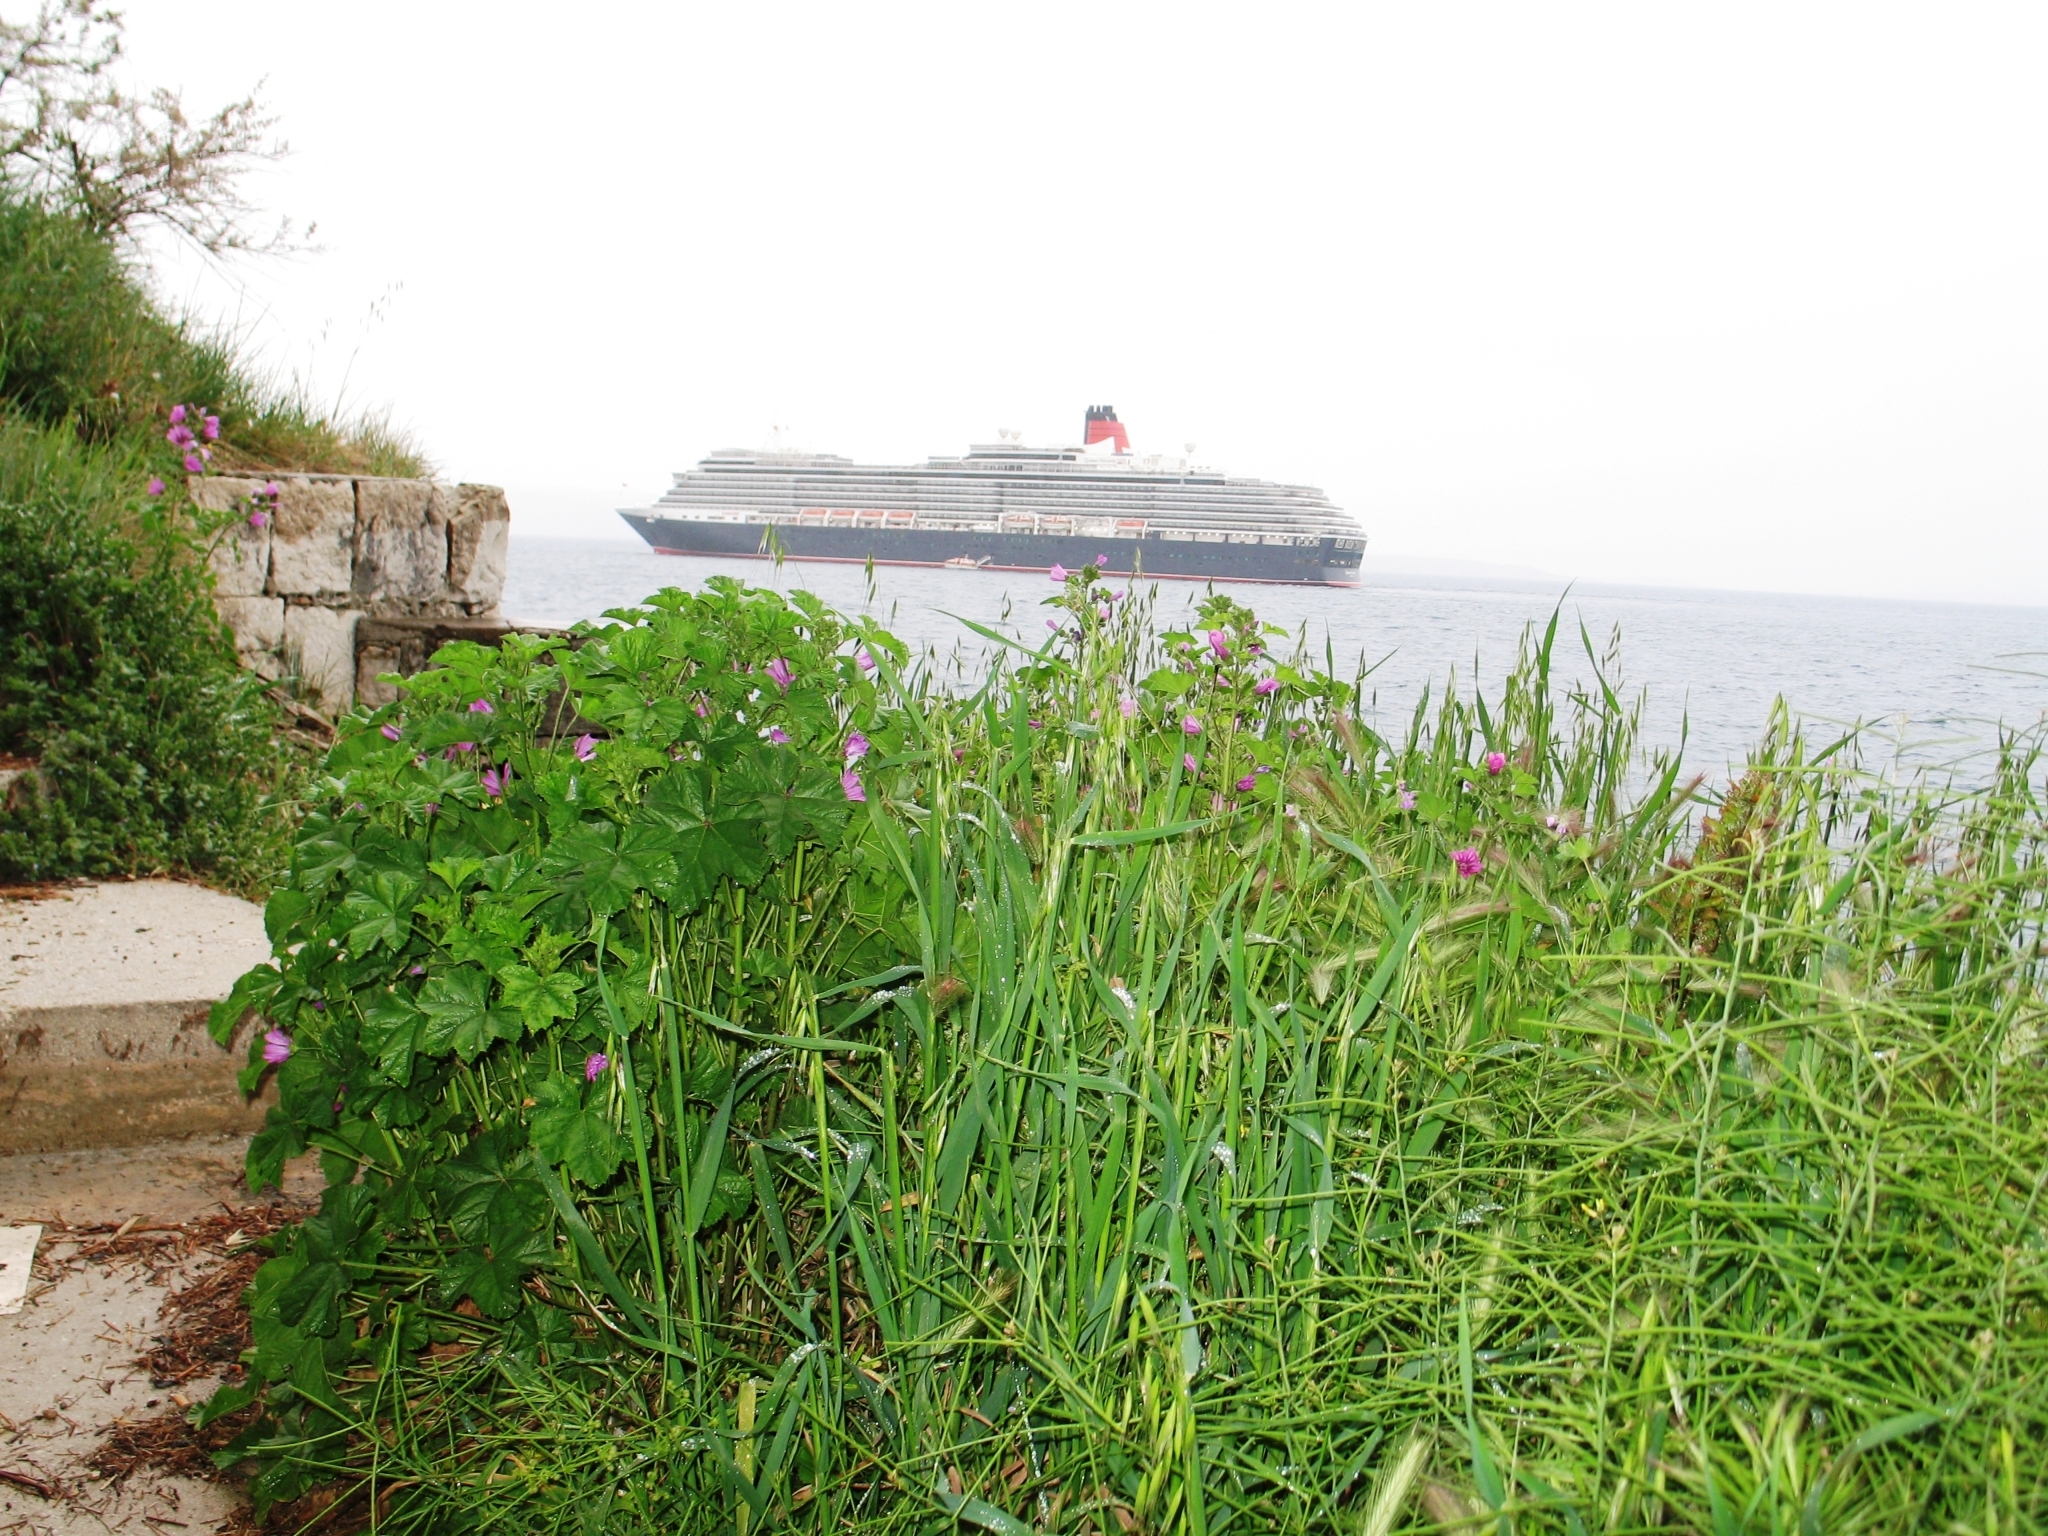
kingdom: Plantae
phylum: Tracheophyta
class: Magnoliopsida
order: Malvales
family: Malvaceae
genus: Malva
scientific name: Malva sylvestris
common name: Common mallow
